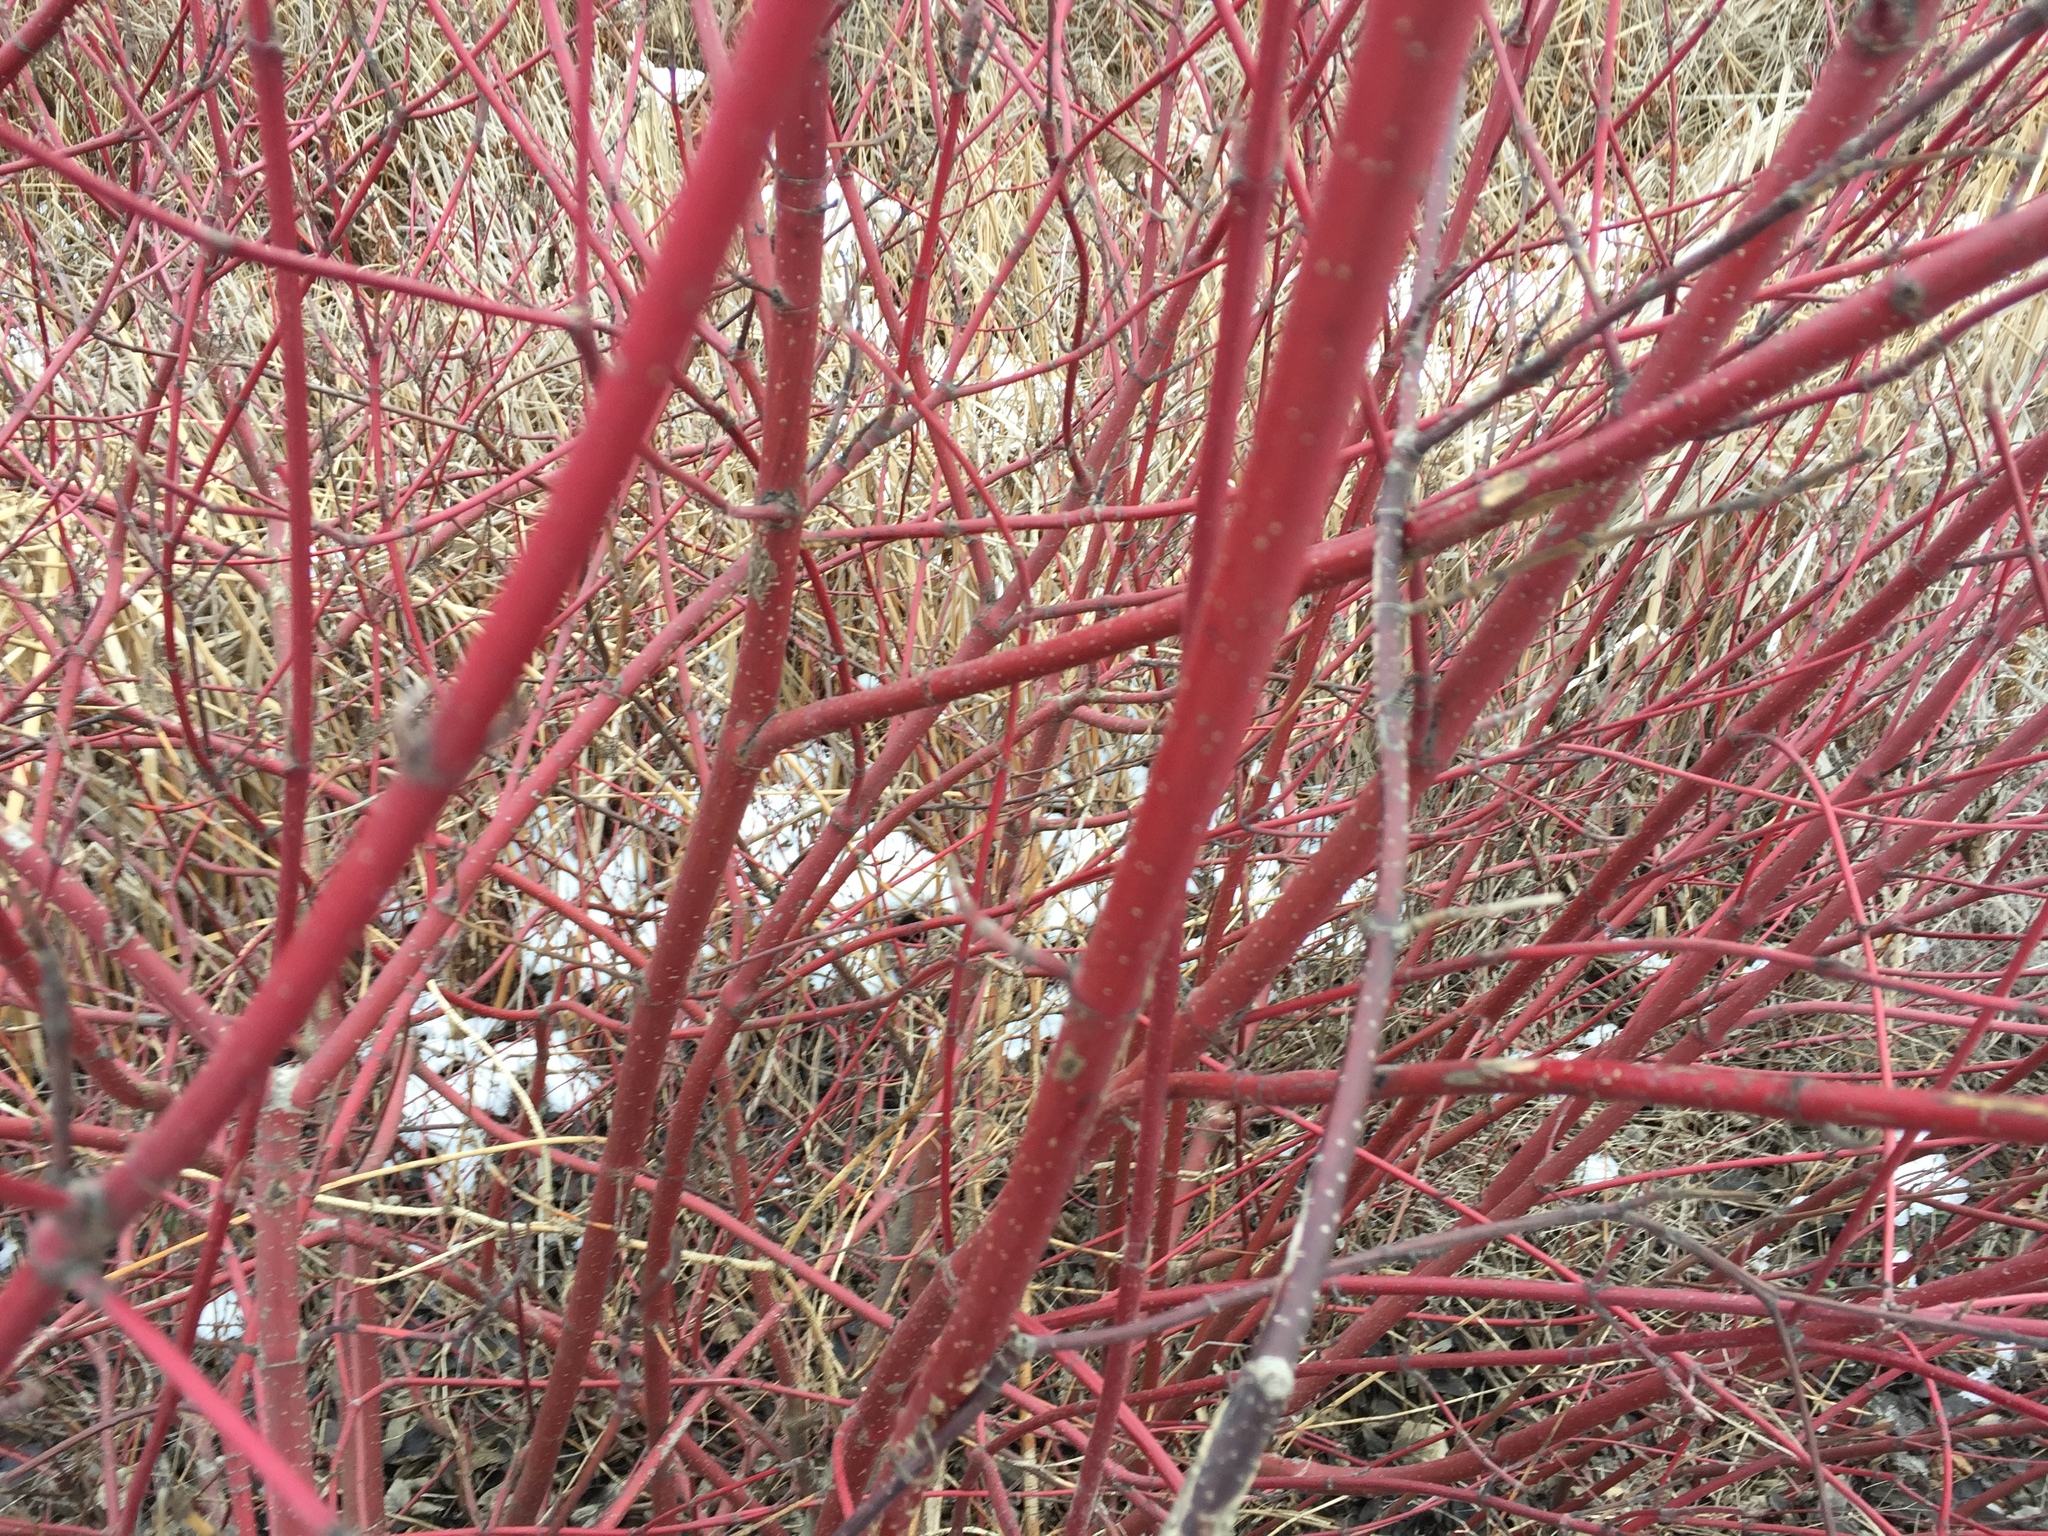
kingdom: Plantae
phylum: Tracheophyta
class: Magnoliopsida
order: Cornales
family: Cornaceae
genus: Cornus
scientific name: Cornus sericea
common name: Red-osier dogwood
